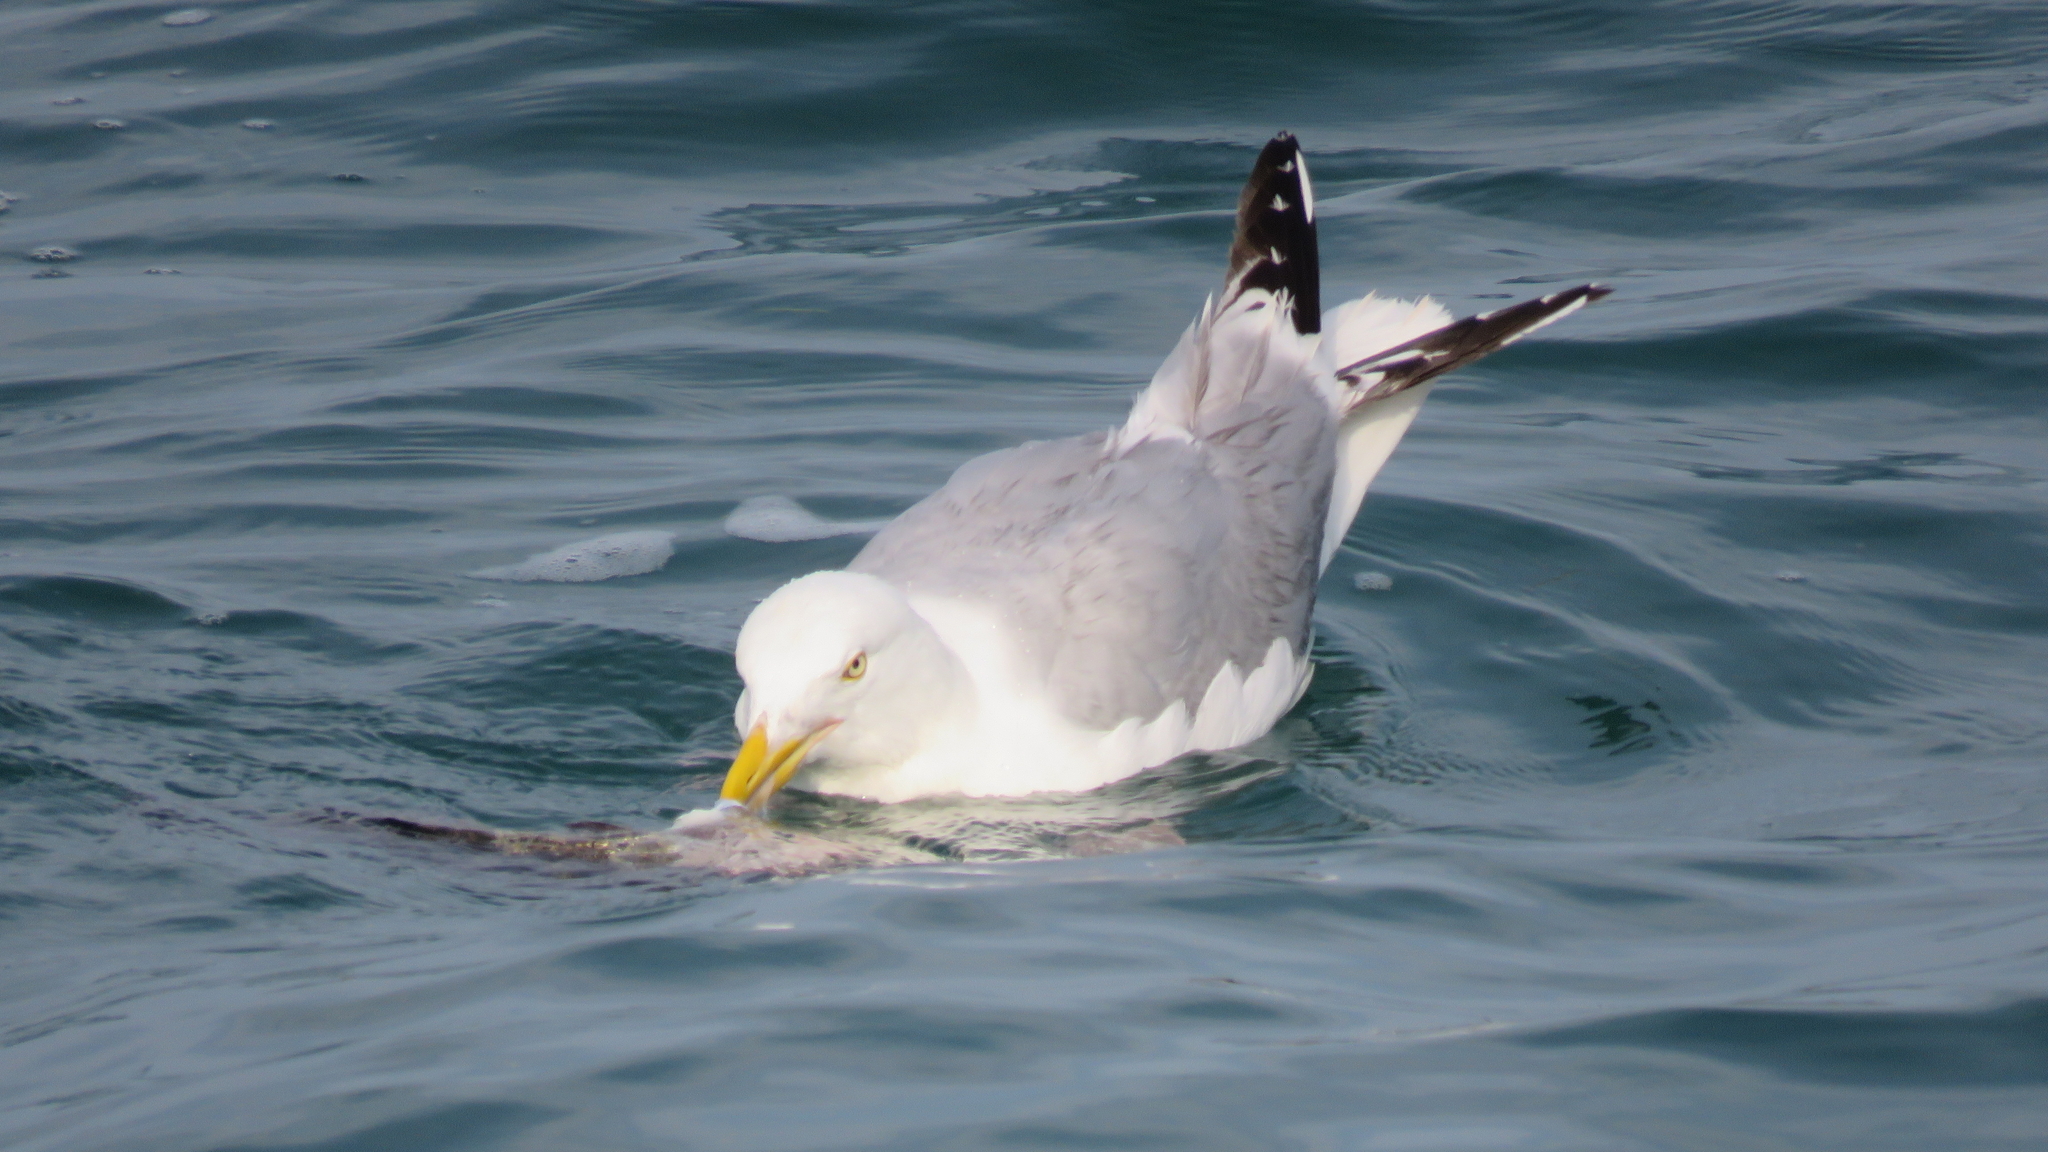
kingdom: Animalia
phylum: Chordata
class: Aves
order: Charadriiformes
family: Laridae
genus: Larus
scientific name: Larus argentatus
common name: Herring gull
